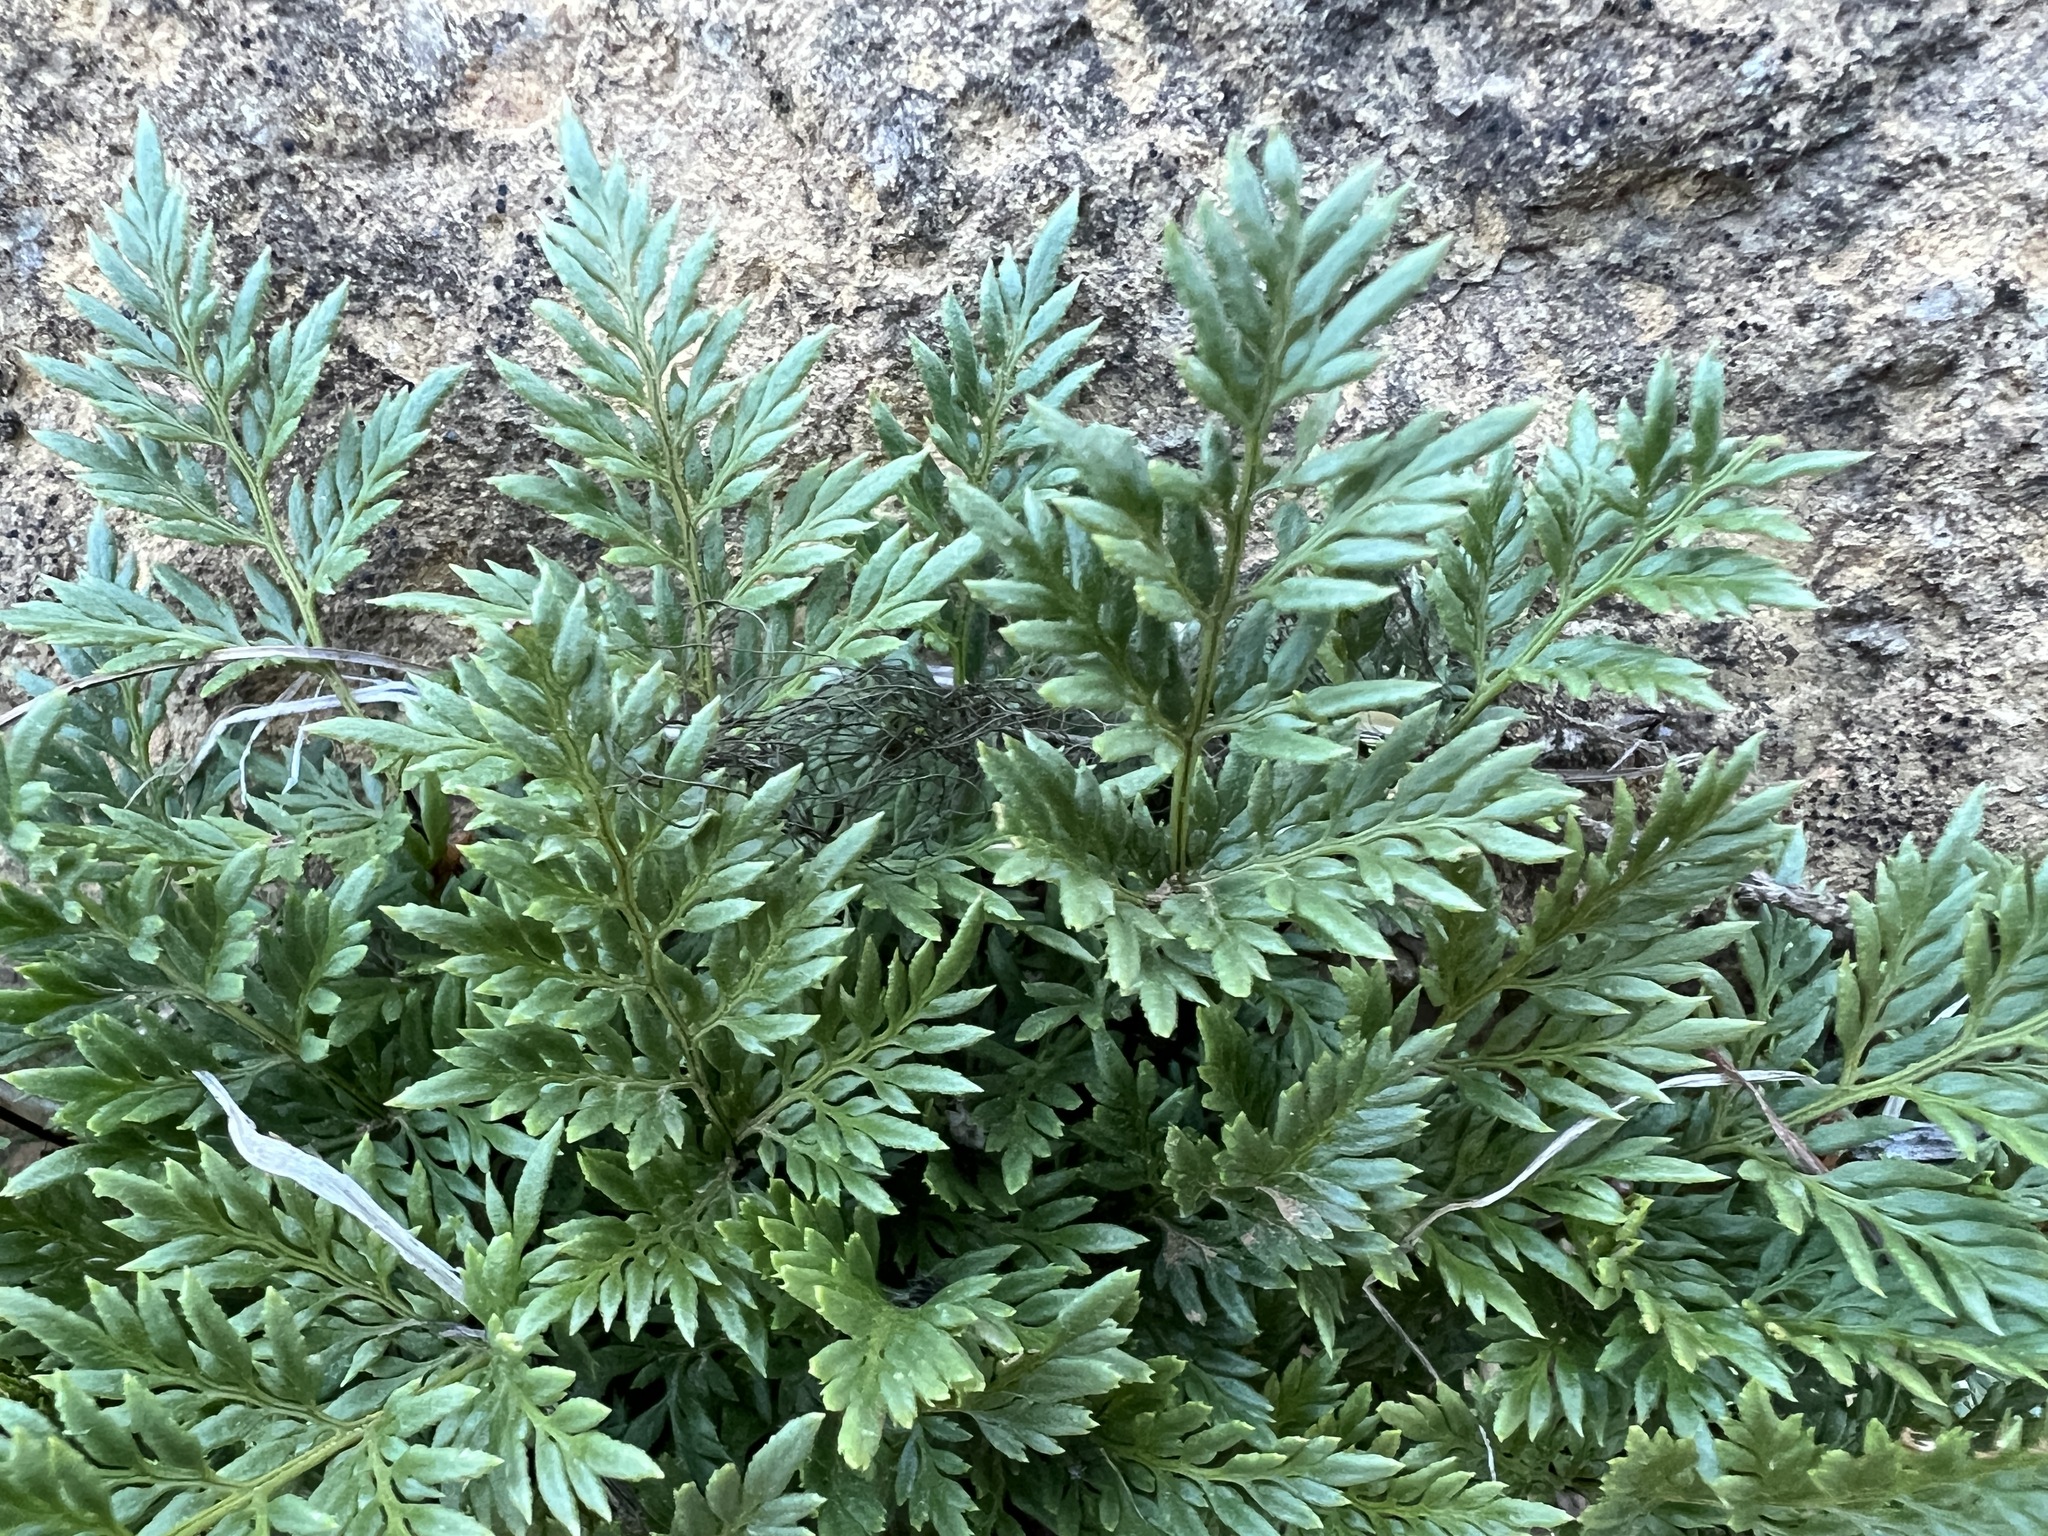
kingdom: Plantae
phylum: Tracheophyta
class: Polypodiopsida
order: Polypodiales
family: Pteridaceae
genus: Aspidotis
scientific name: Aspidotis densa
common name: Indian's dream
